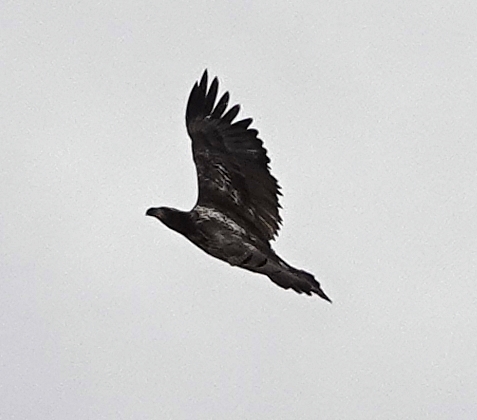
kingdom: Animalia
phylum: Chordata
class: Aves
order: Accipitriformes
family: Accipitridae
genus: Haliaeetus
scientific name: Haliaeetus leucocephalus
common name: Bald eagle
